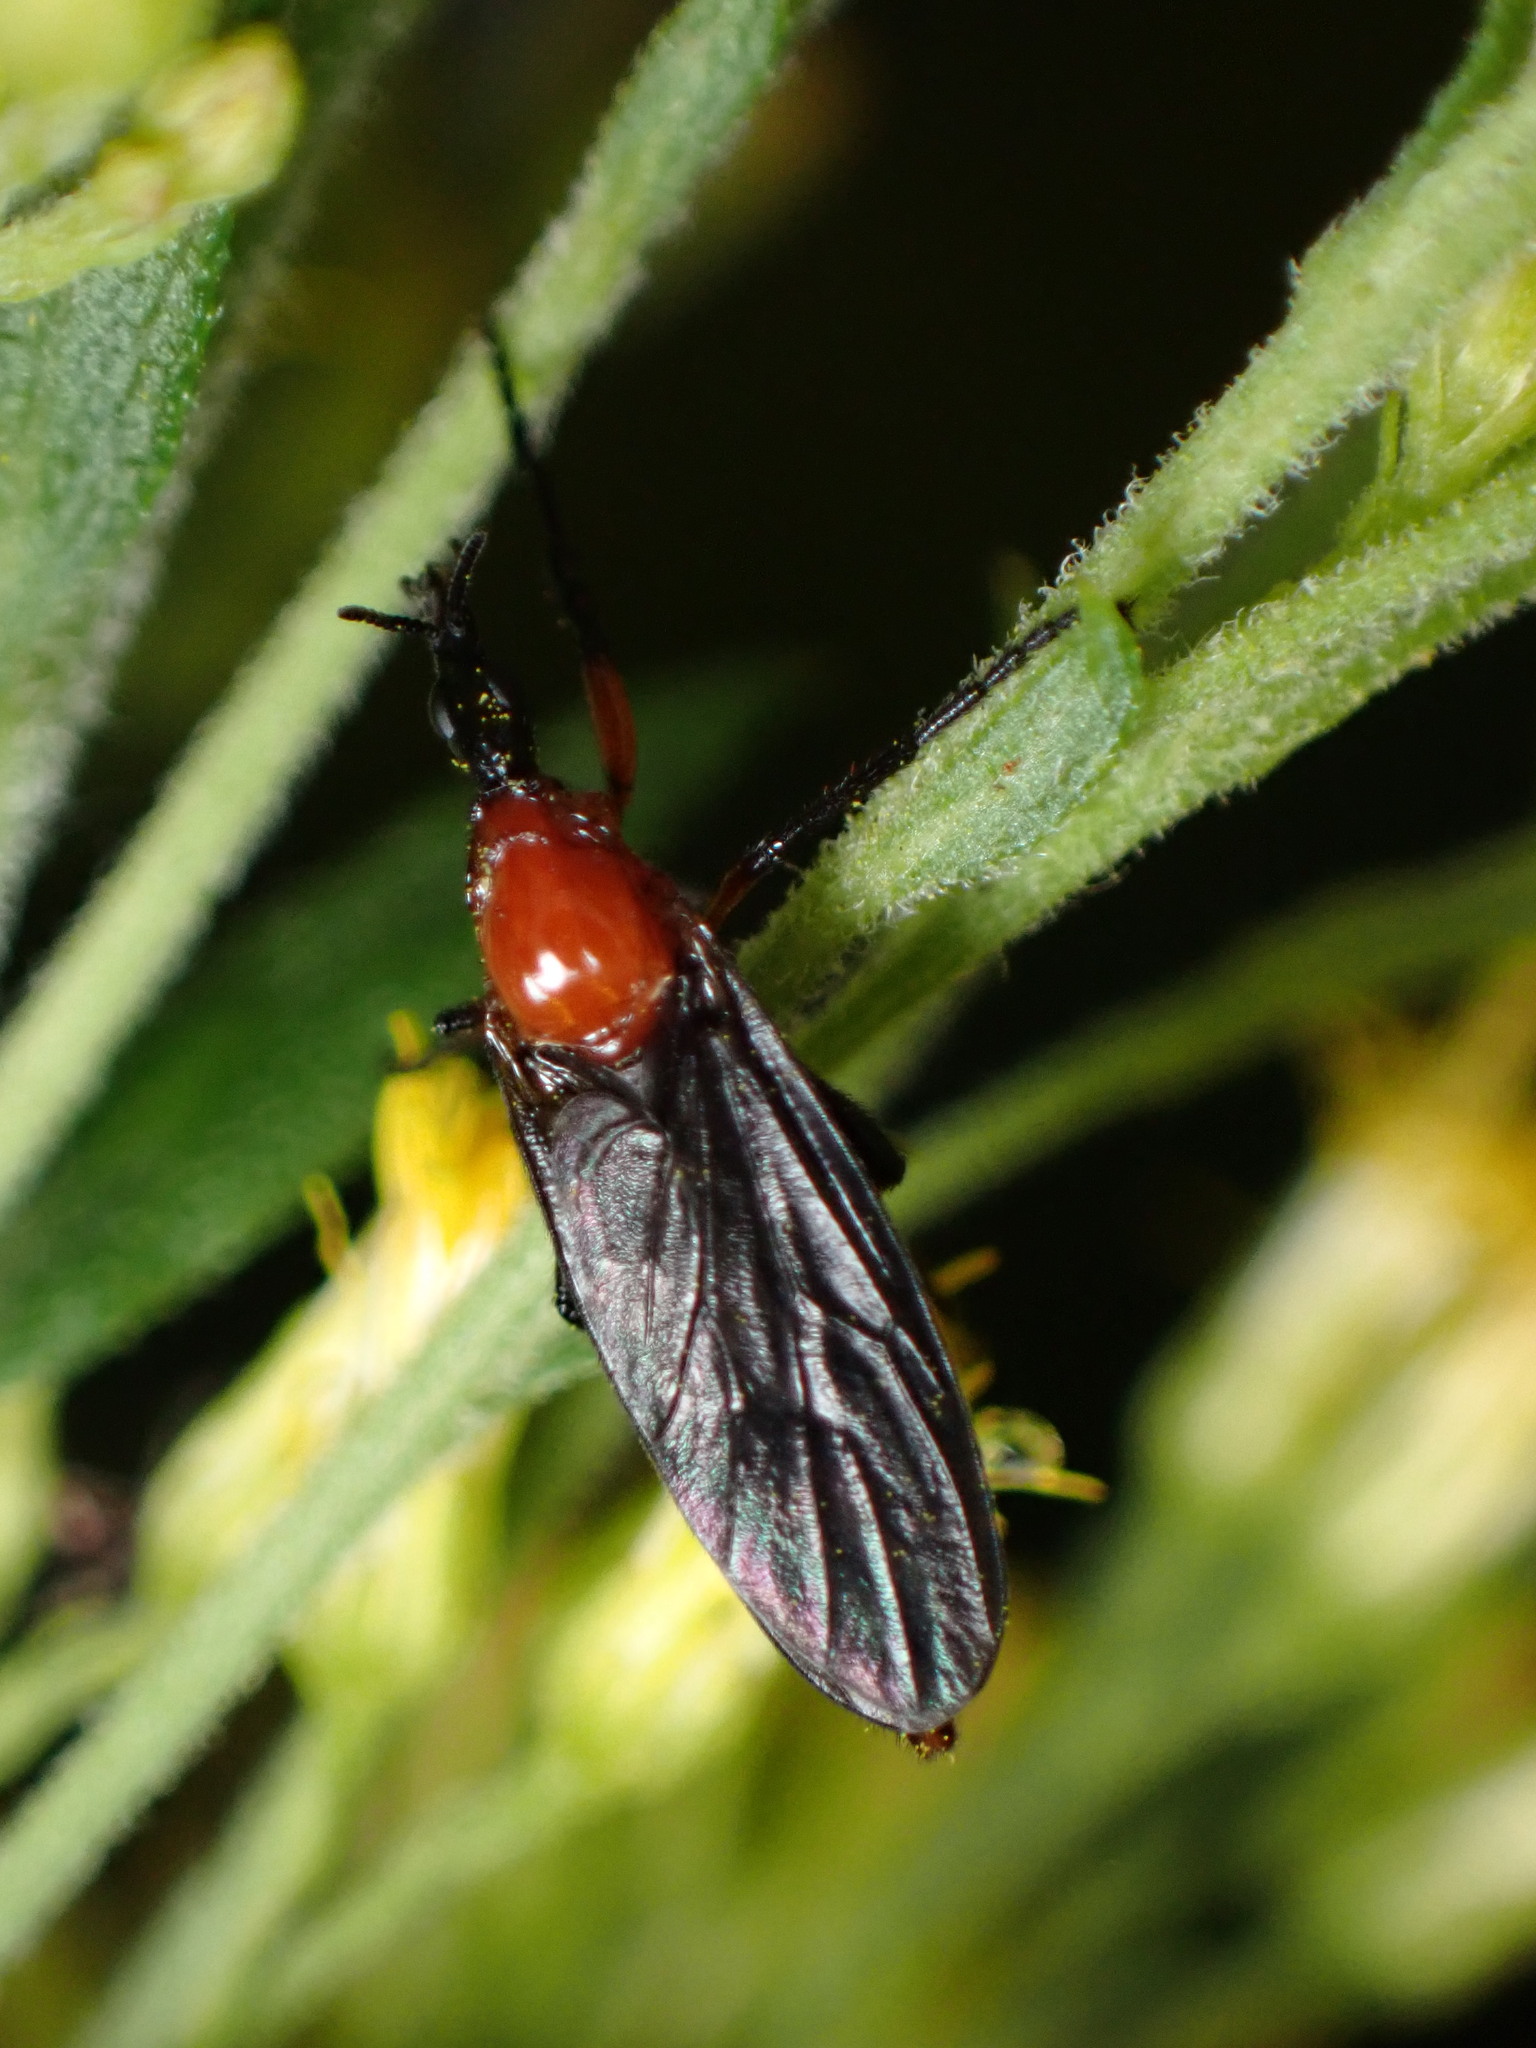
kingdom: Animalia
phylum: Arthropoda
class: Insecta
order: Diptera
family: Bibionidae
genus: Dilophus
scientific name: Dilophus spinipes
